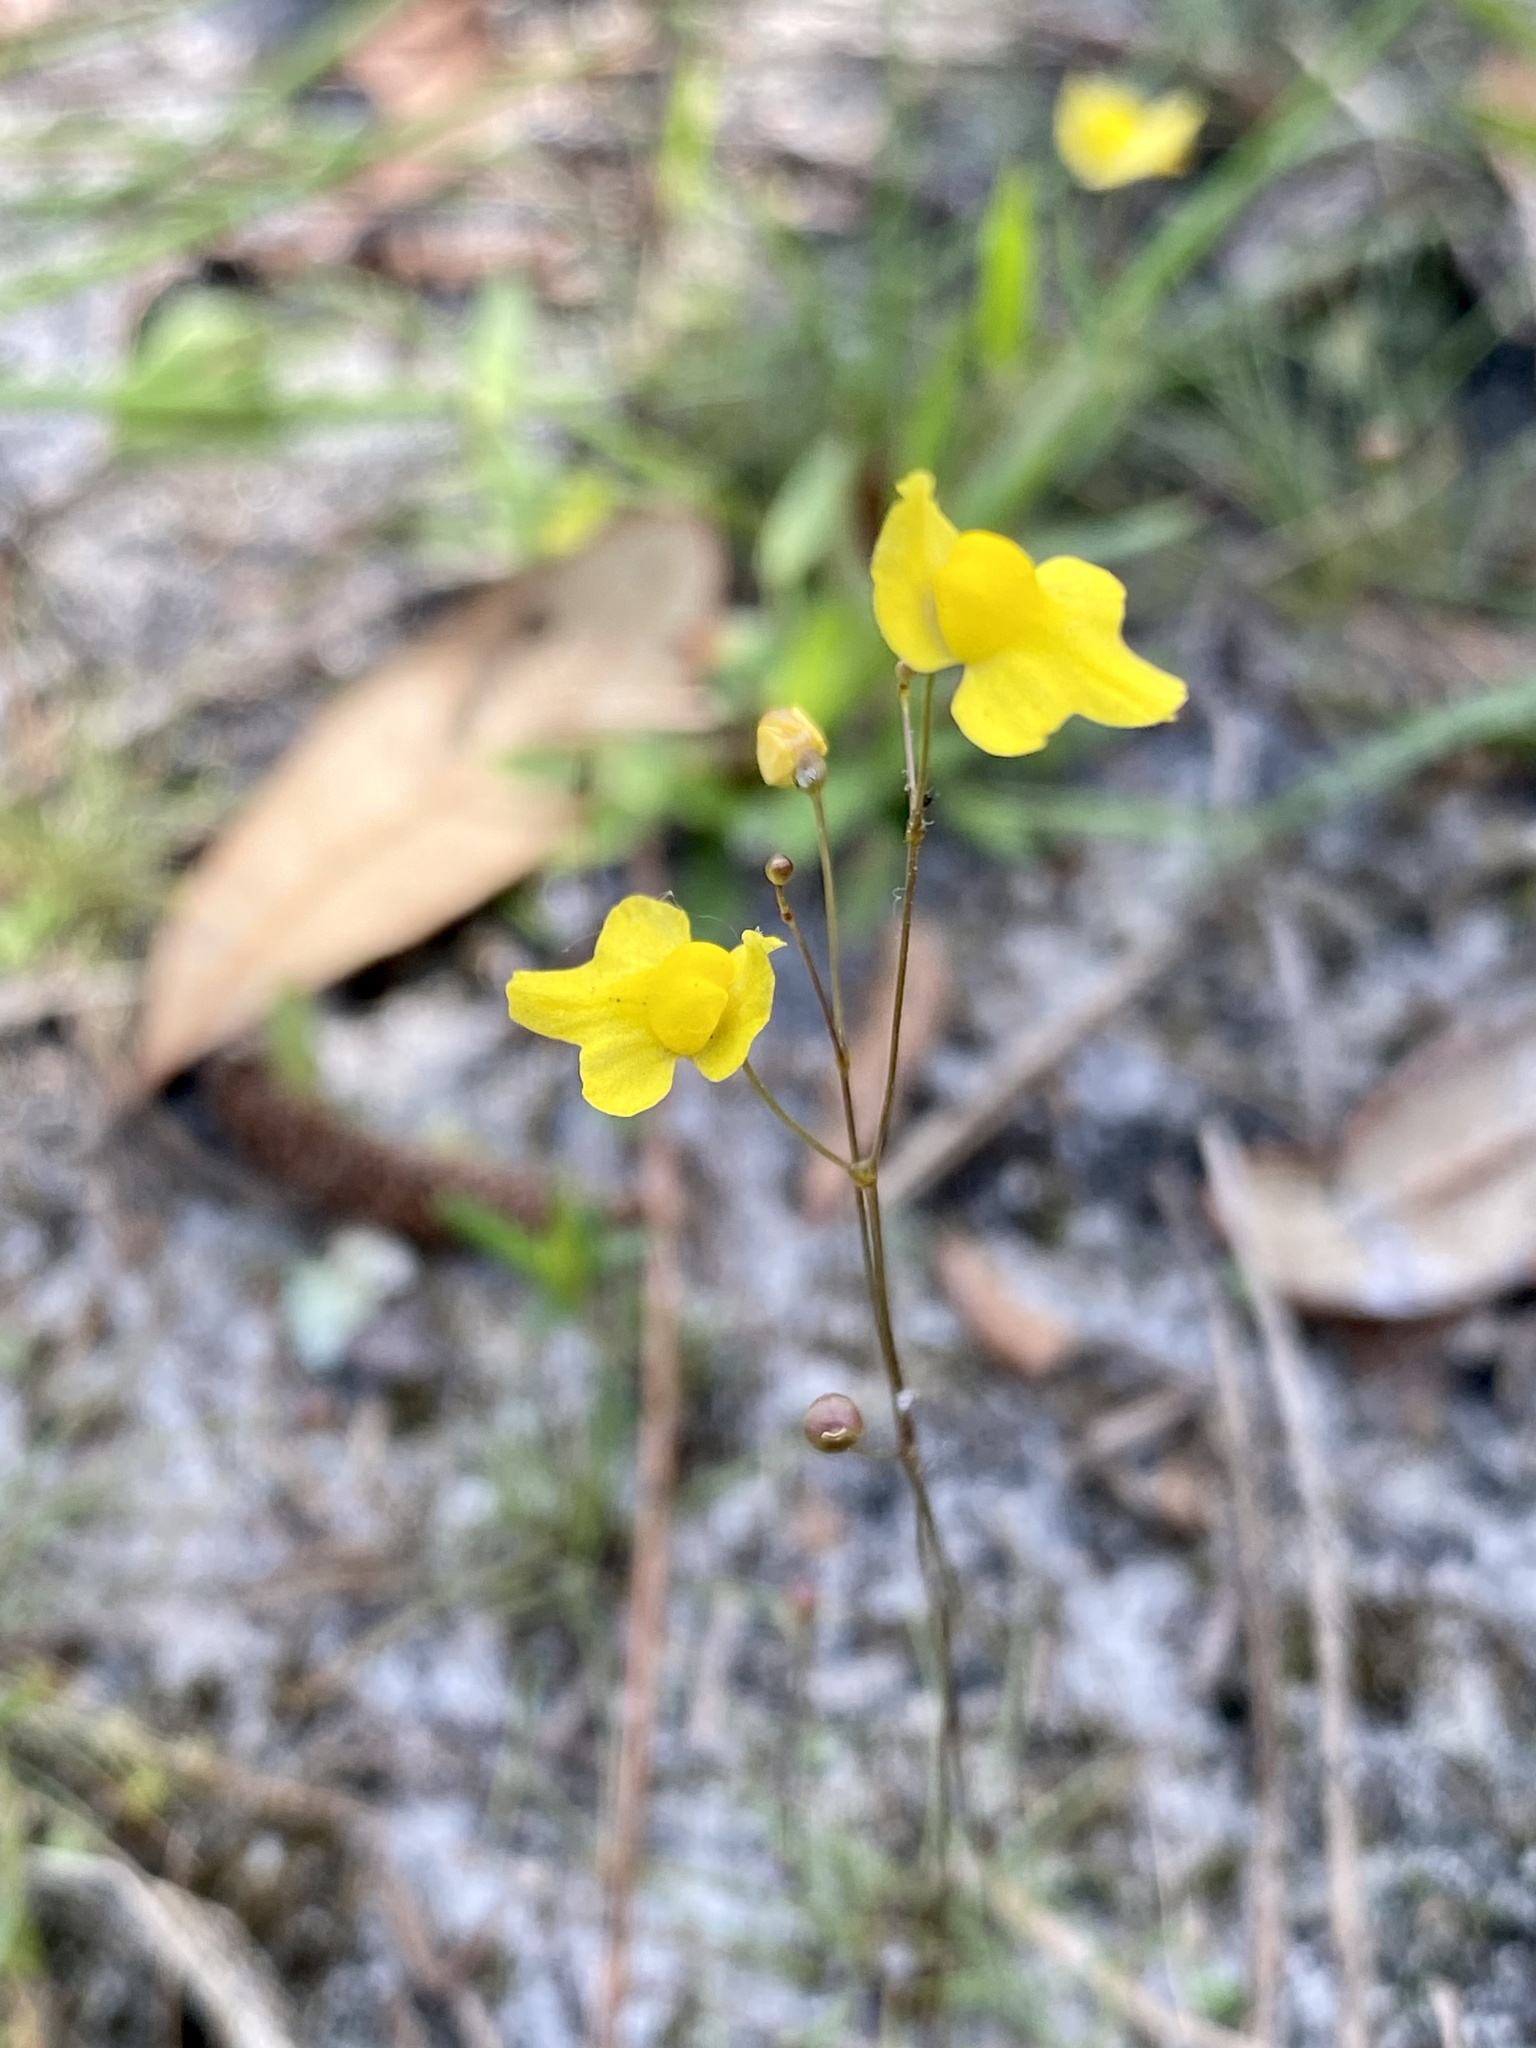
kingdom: Plantae
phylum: Tracheophyta
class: Magnoliopsida
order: Lamiales
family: Lentibulariaceae
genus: Utricularia
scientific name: Utricularia subulata
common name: Tiny bladderwort
